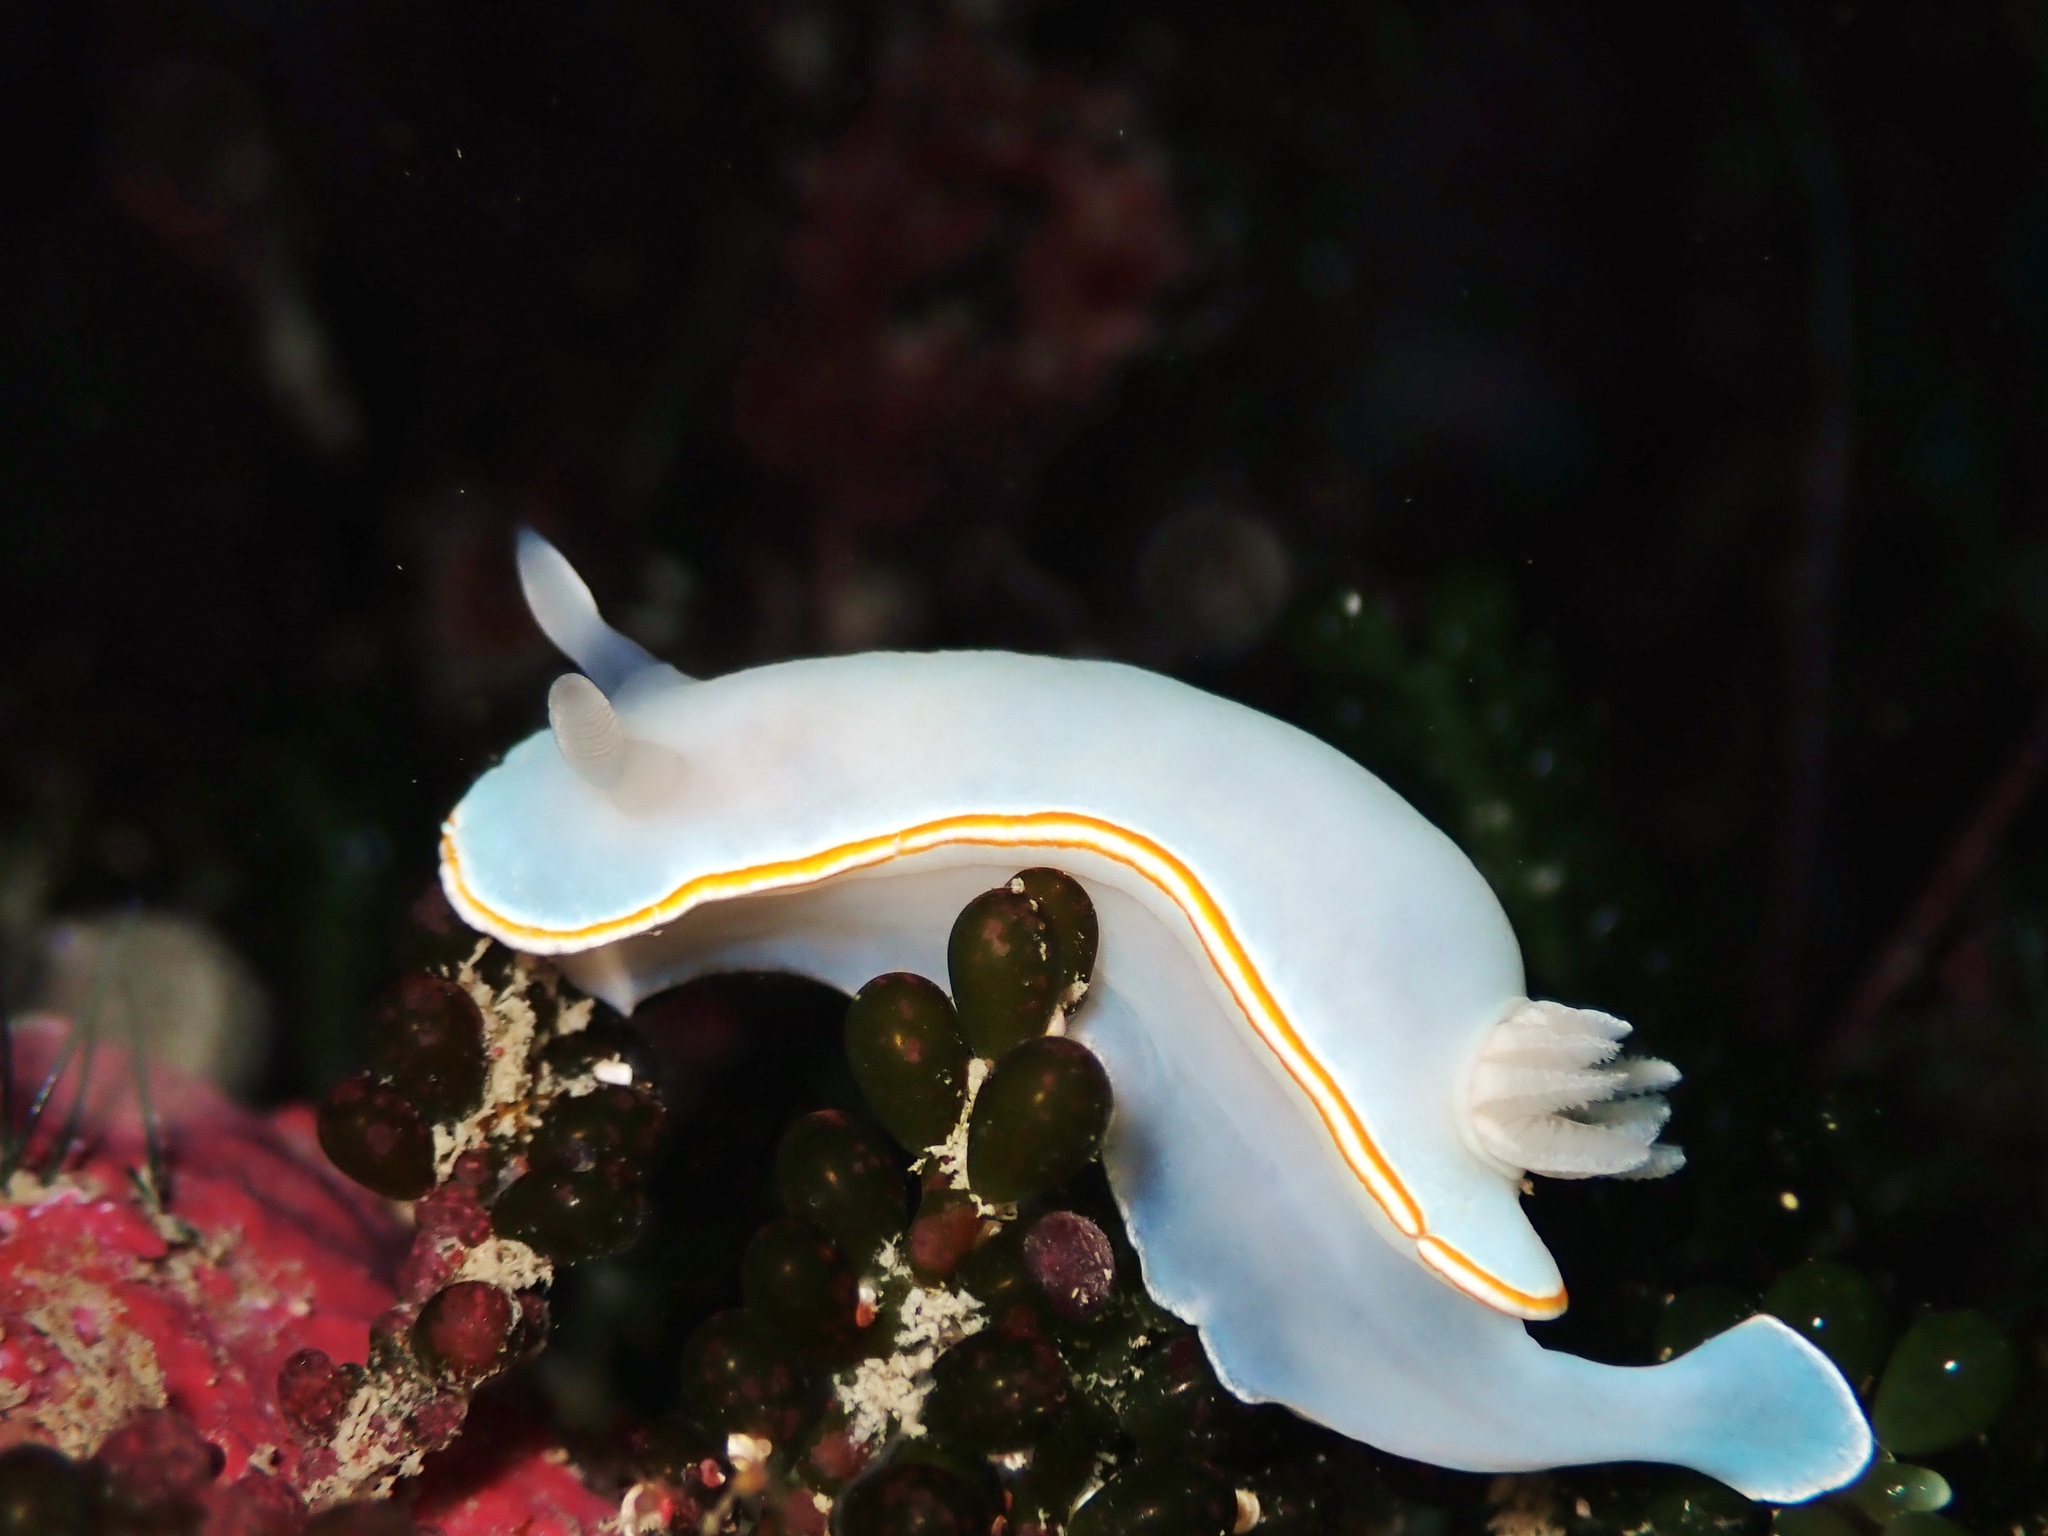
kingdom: Animalia
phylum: Mollusca
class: Gastropoda
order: Nudibranchia
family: Chromodorididae
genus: Goniobranchus
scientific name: Goniobranchus aureomarginatus
